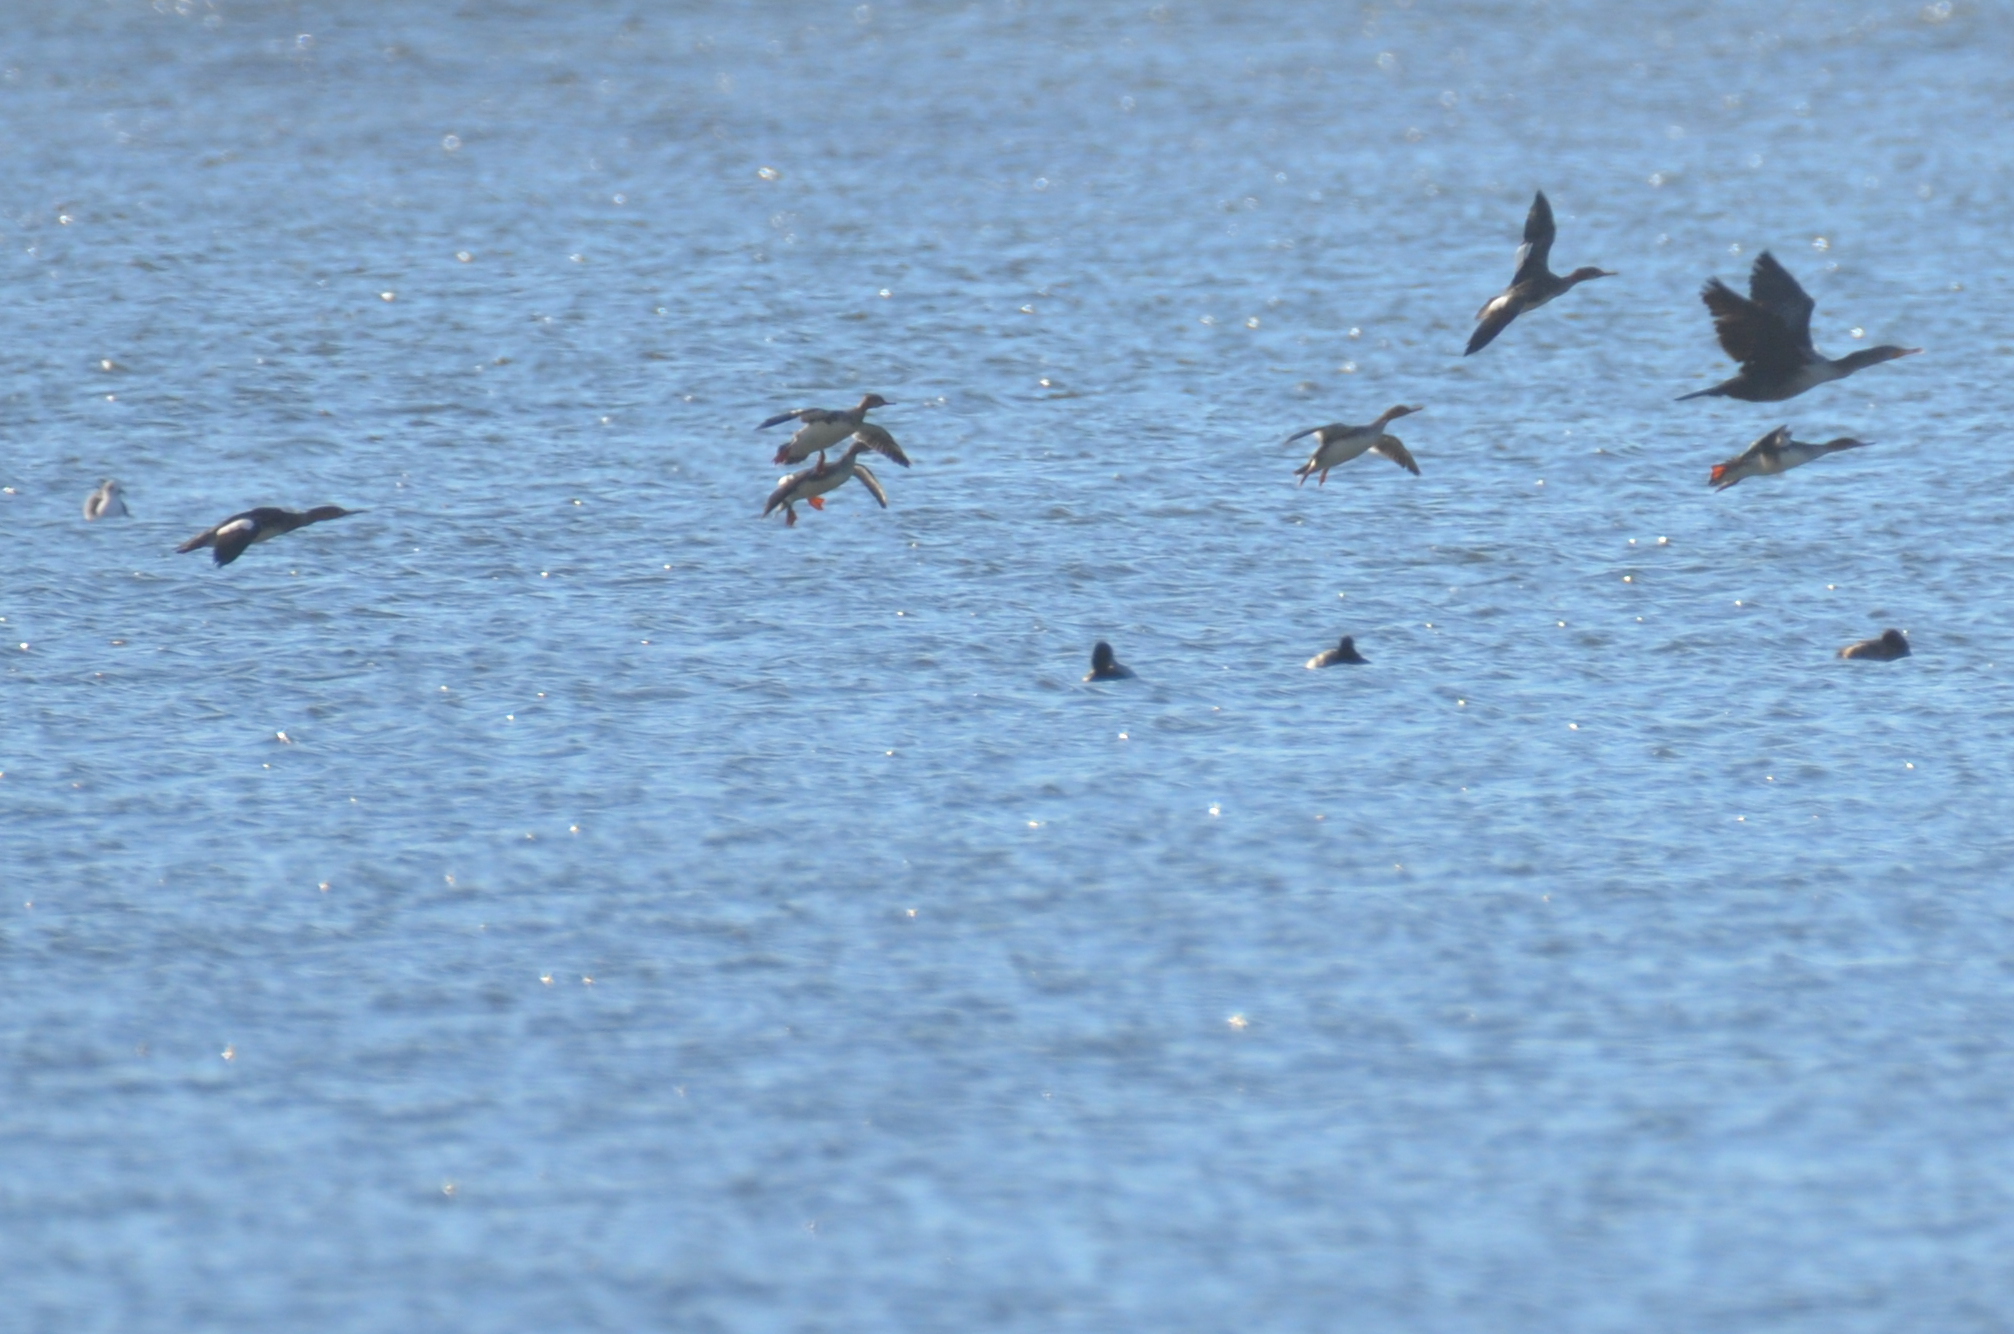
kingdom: Animalia
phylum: Chordata
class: Aves
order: Anseriformes
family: Anatidae
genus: Mergus
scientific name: Mergus serrator
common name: Red-breasted merganser
